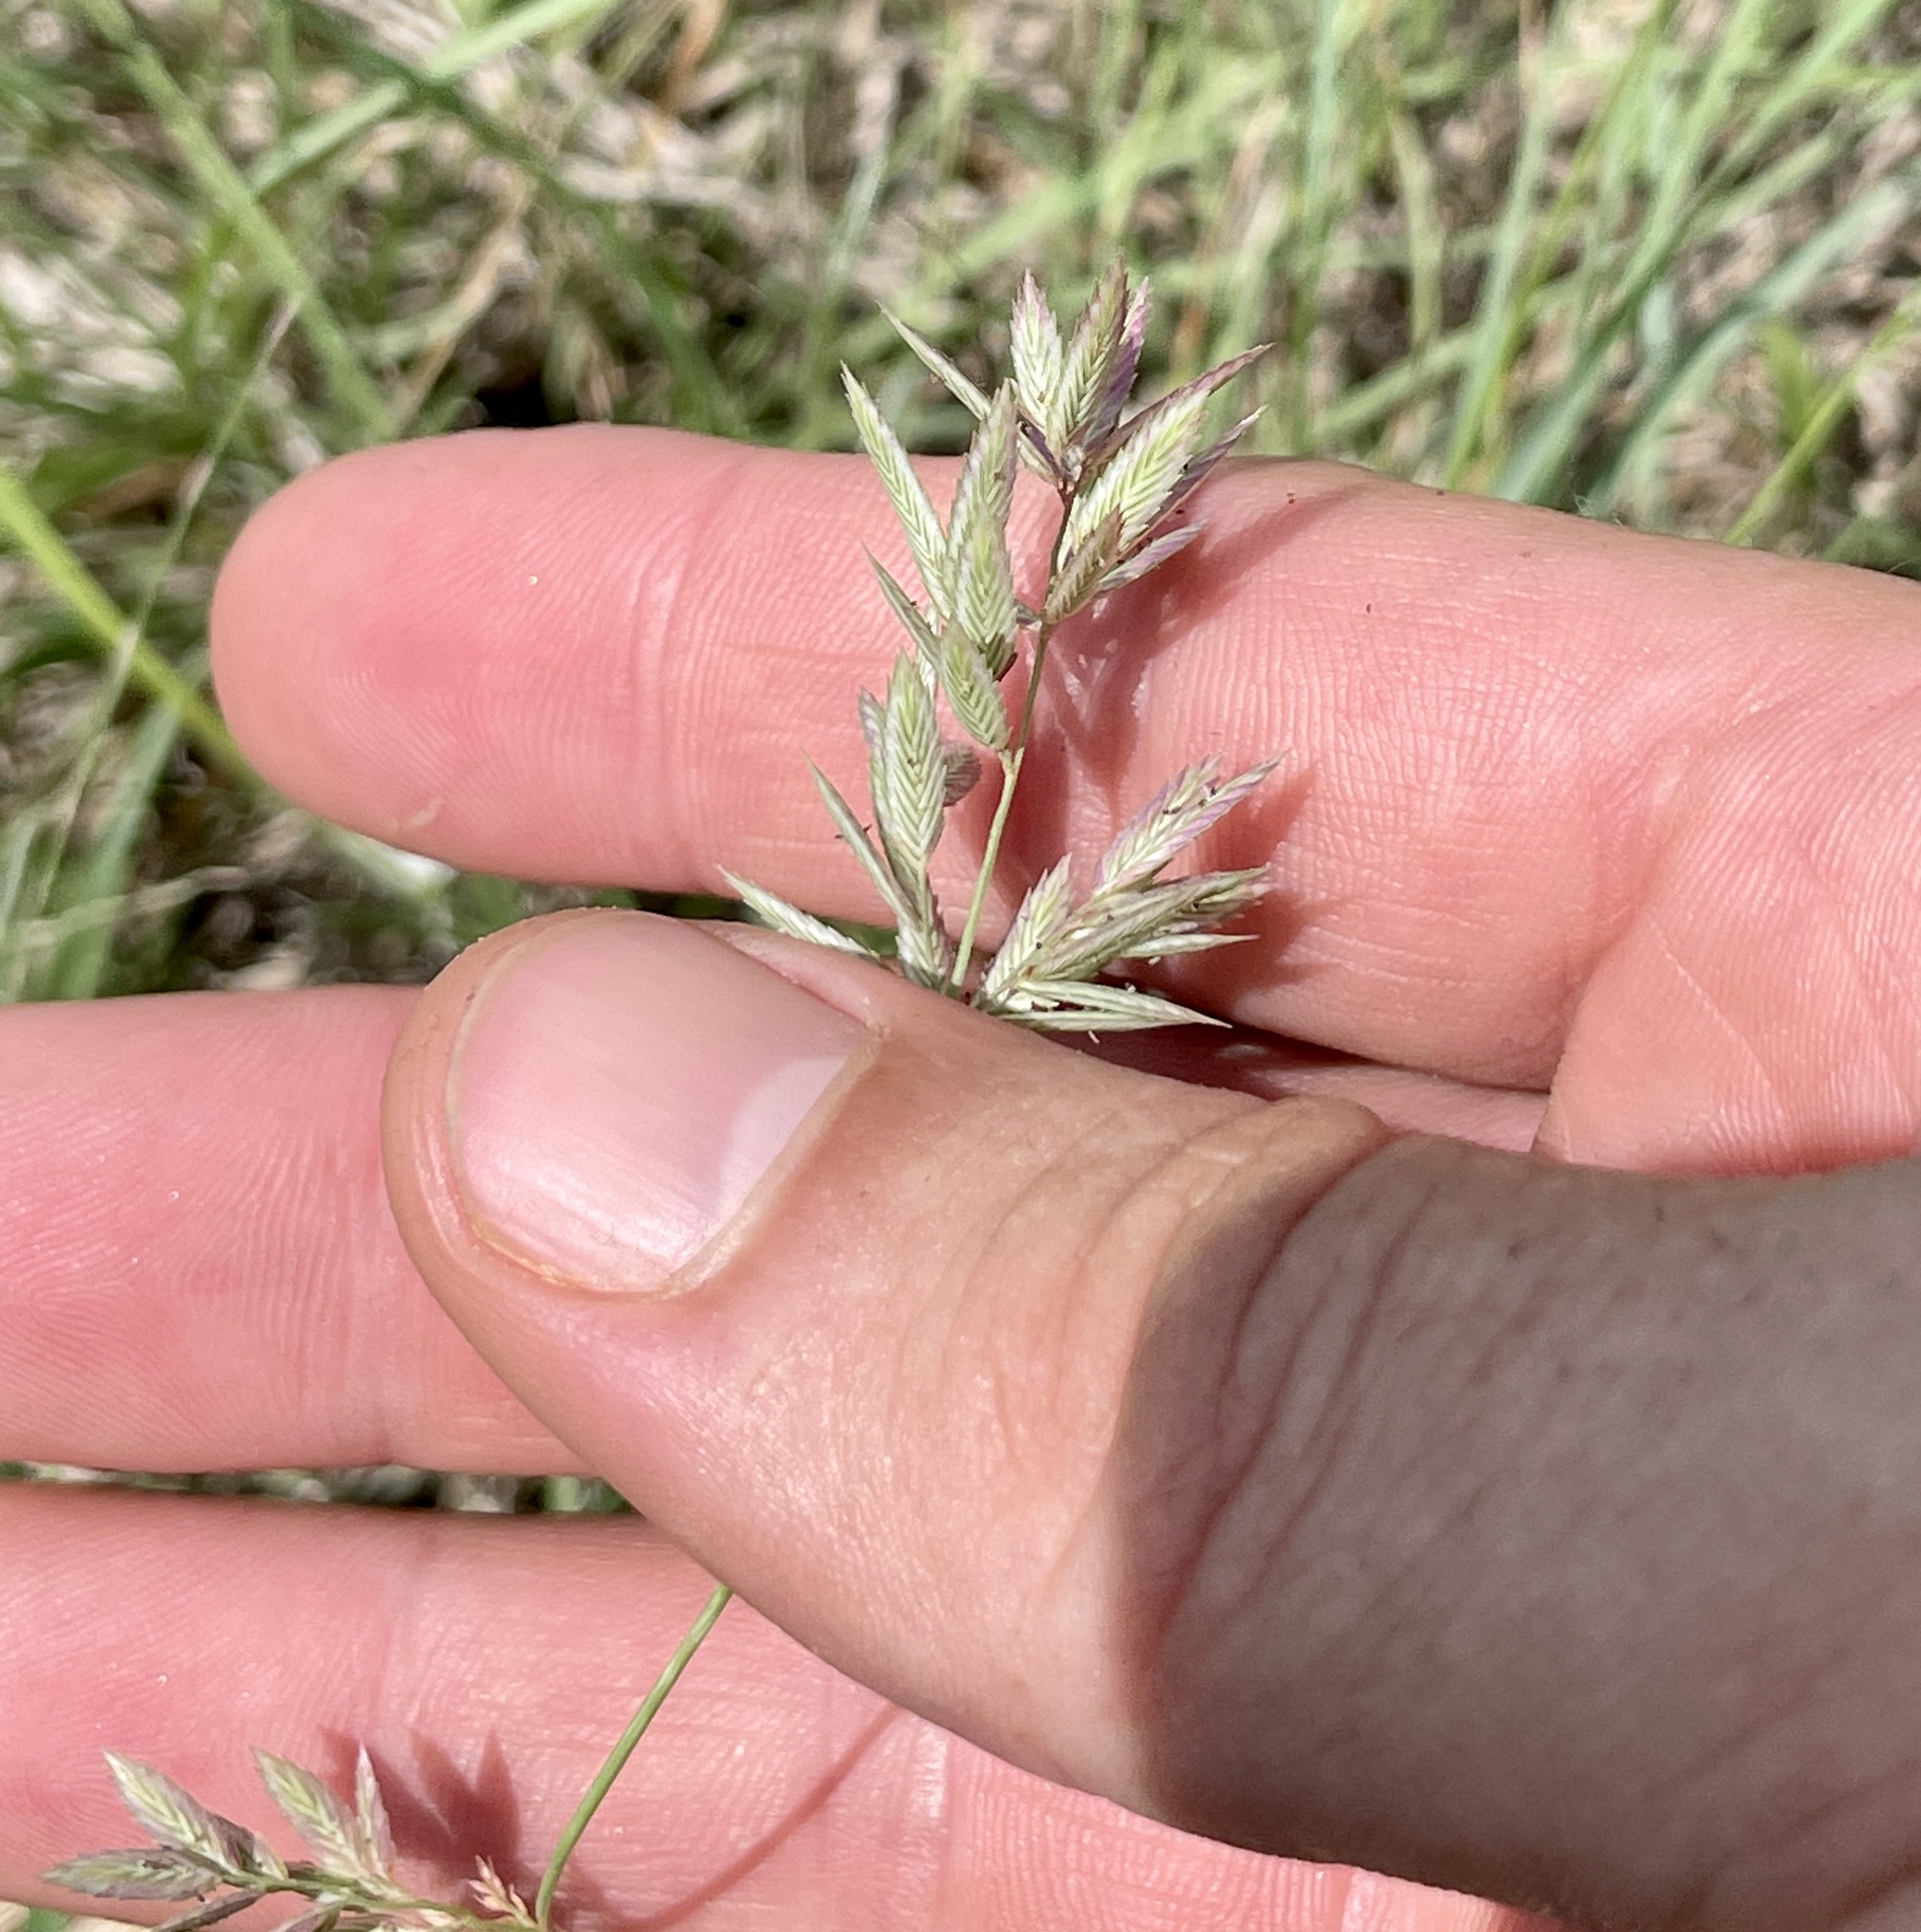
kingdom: Plantae
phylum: Tracheophyta
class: Liliopsida
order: Poales
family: Poaceae
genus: Eragrostis
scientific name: Eragrostis secundiflora
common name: Red love grass
